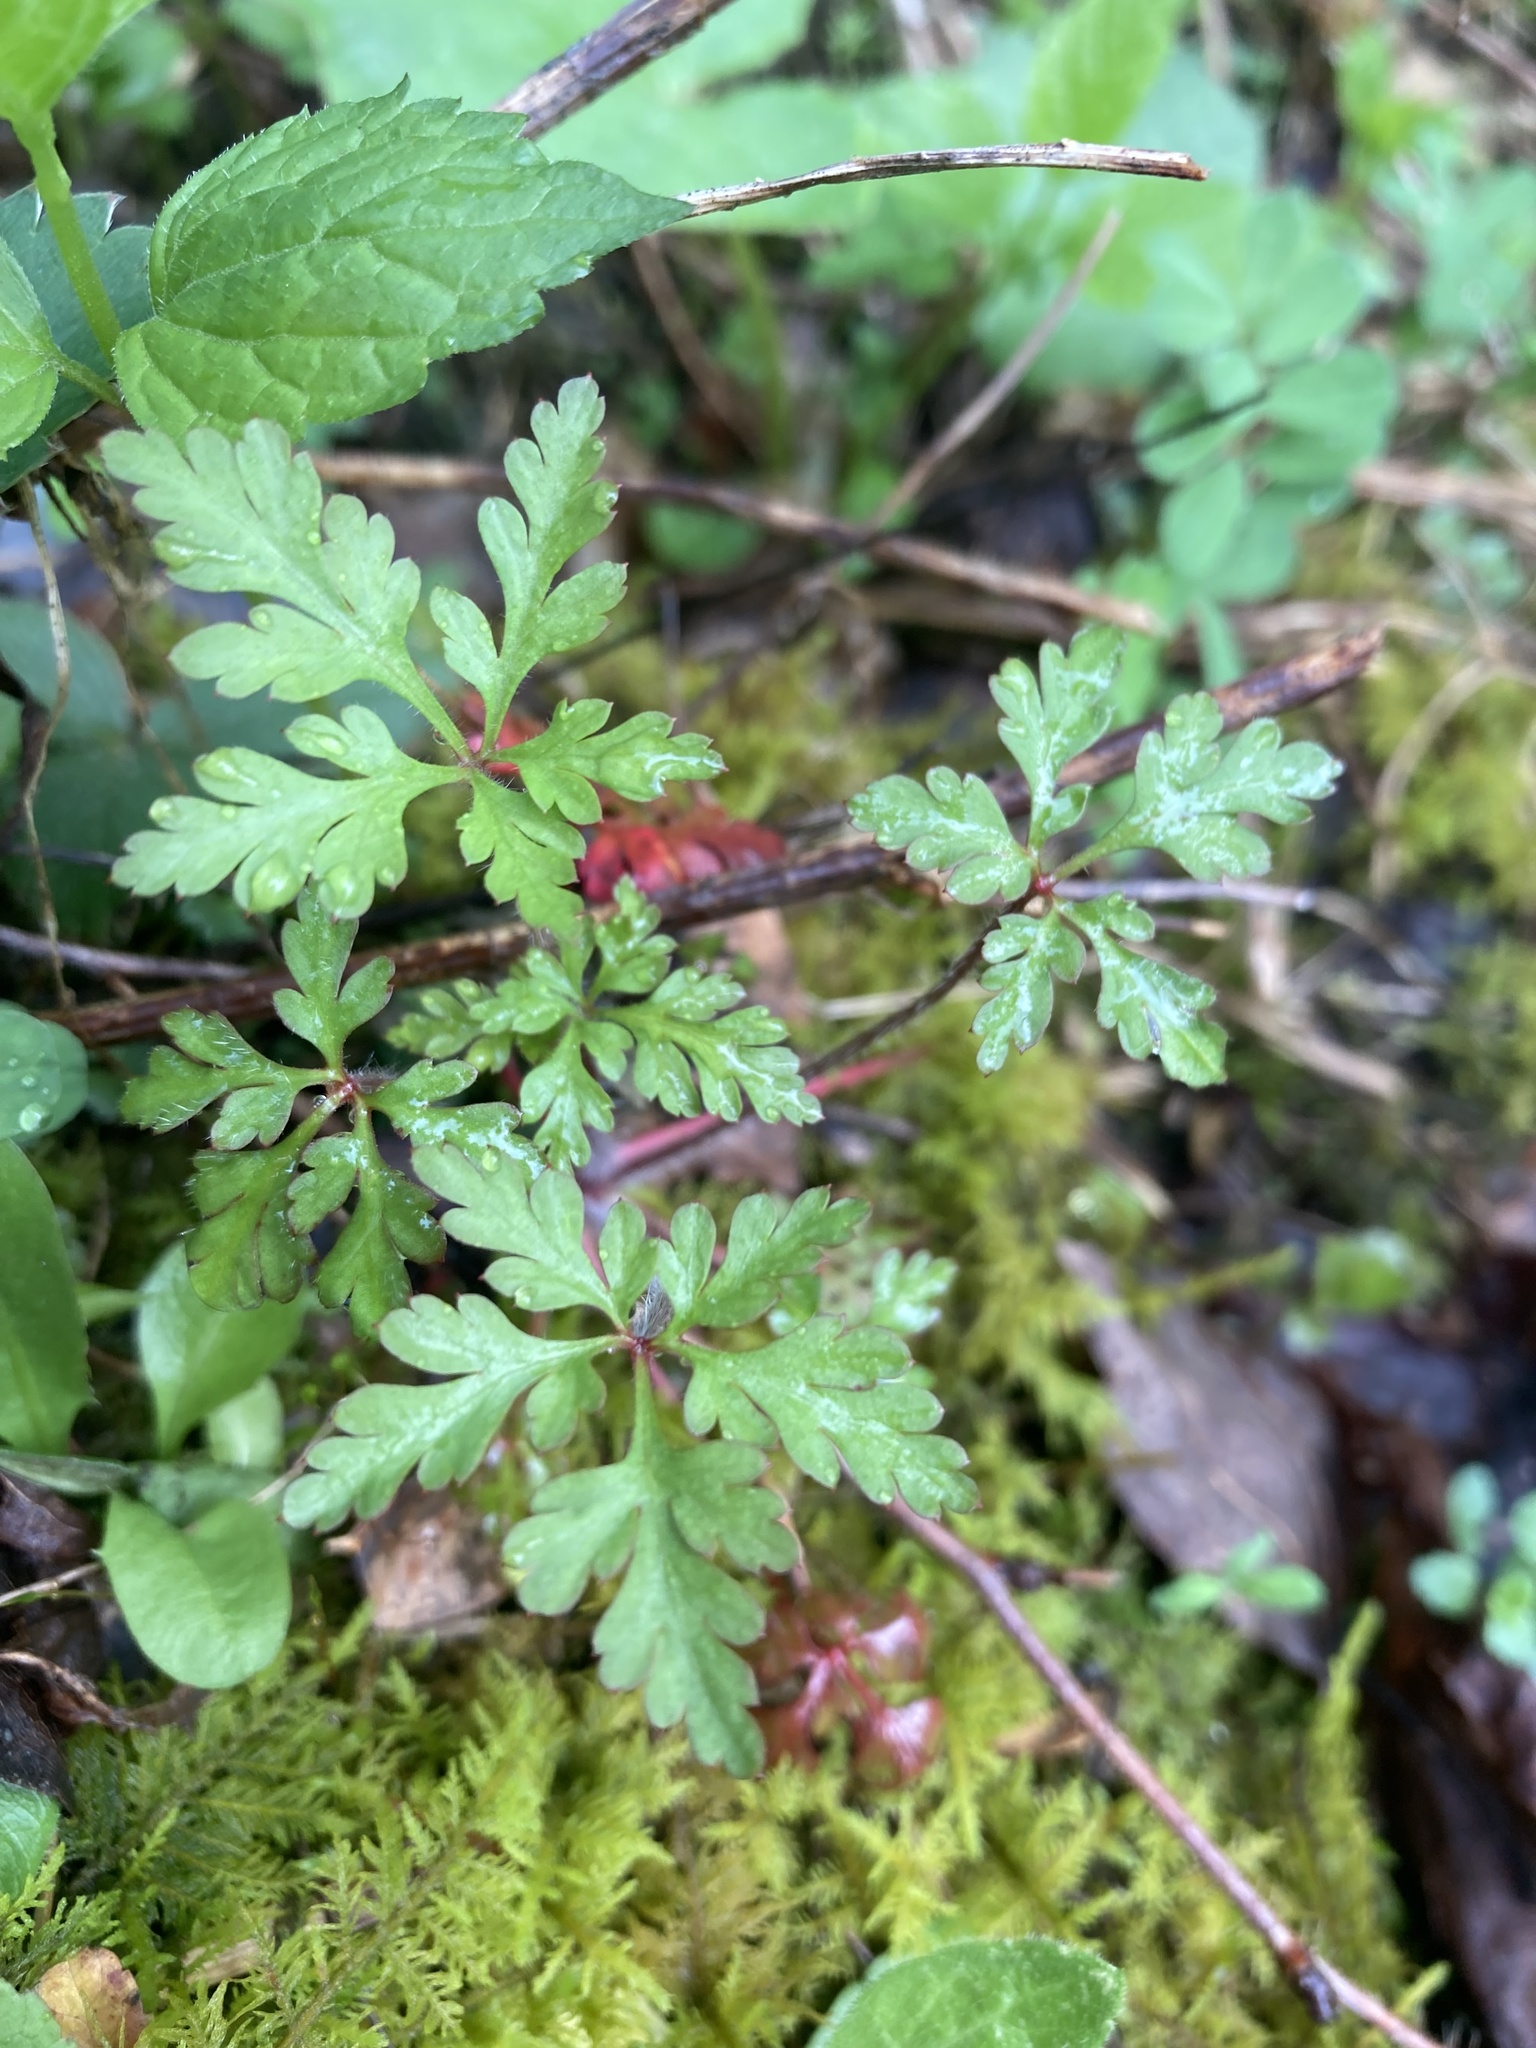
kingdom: Plantae
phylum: Tracheophyta
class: Magnoliopsida
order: Geraniales
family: Geraniaceae
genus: Geranium
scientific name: Geranium robertianum
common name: Herb-robert
